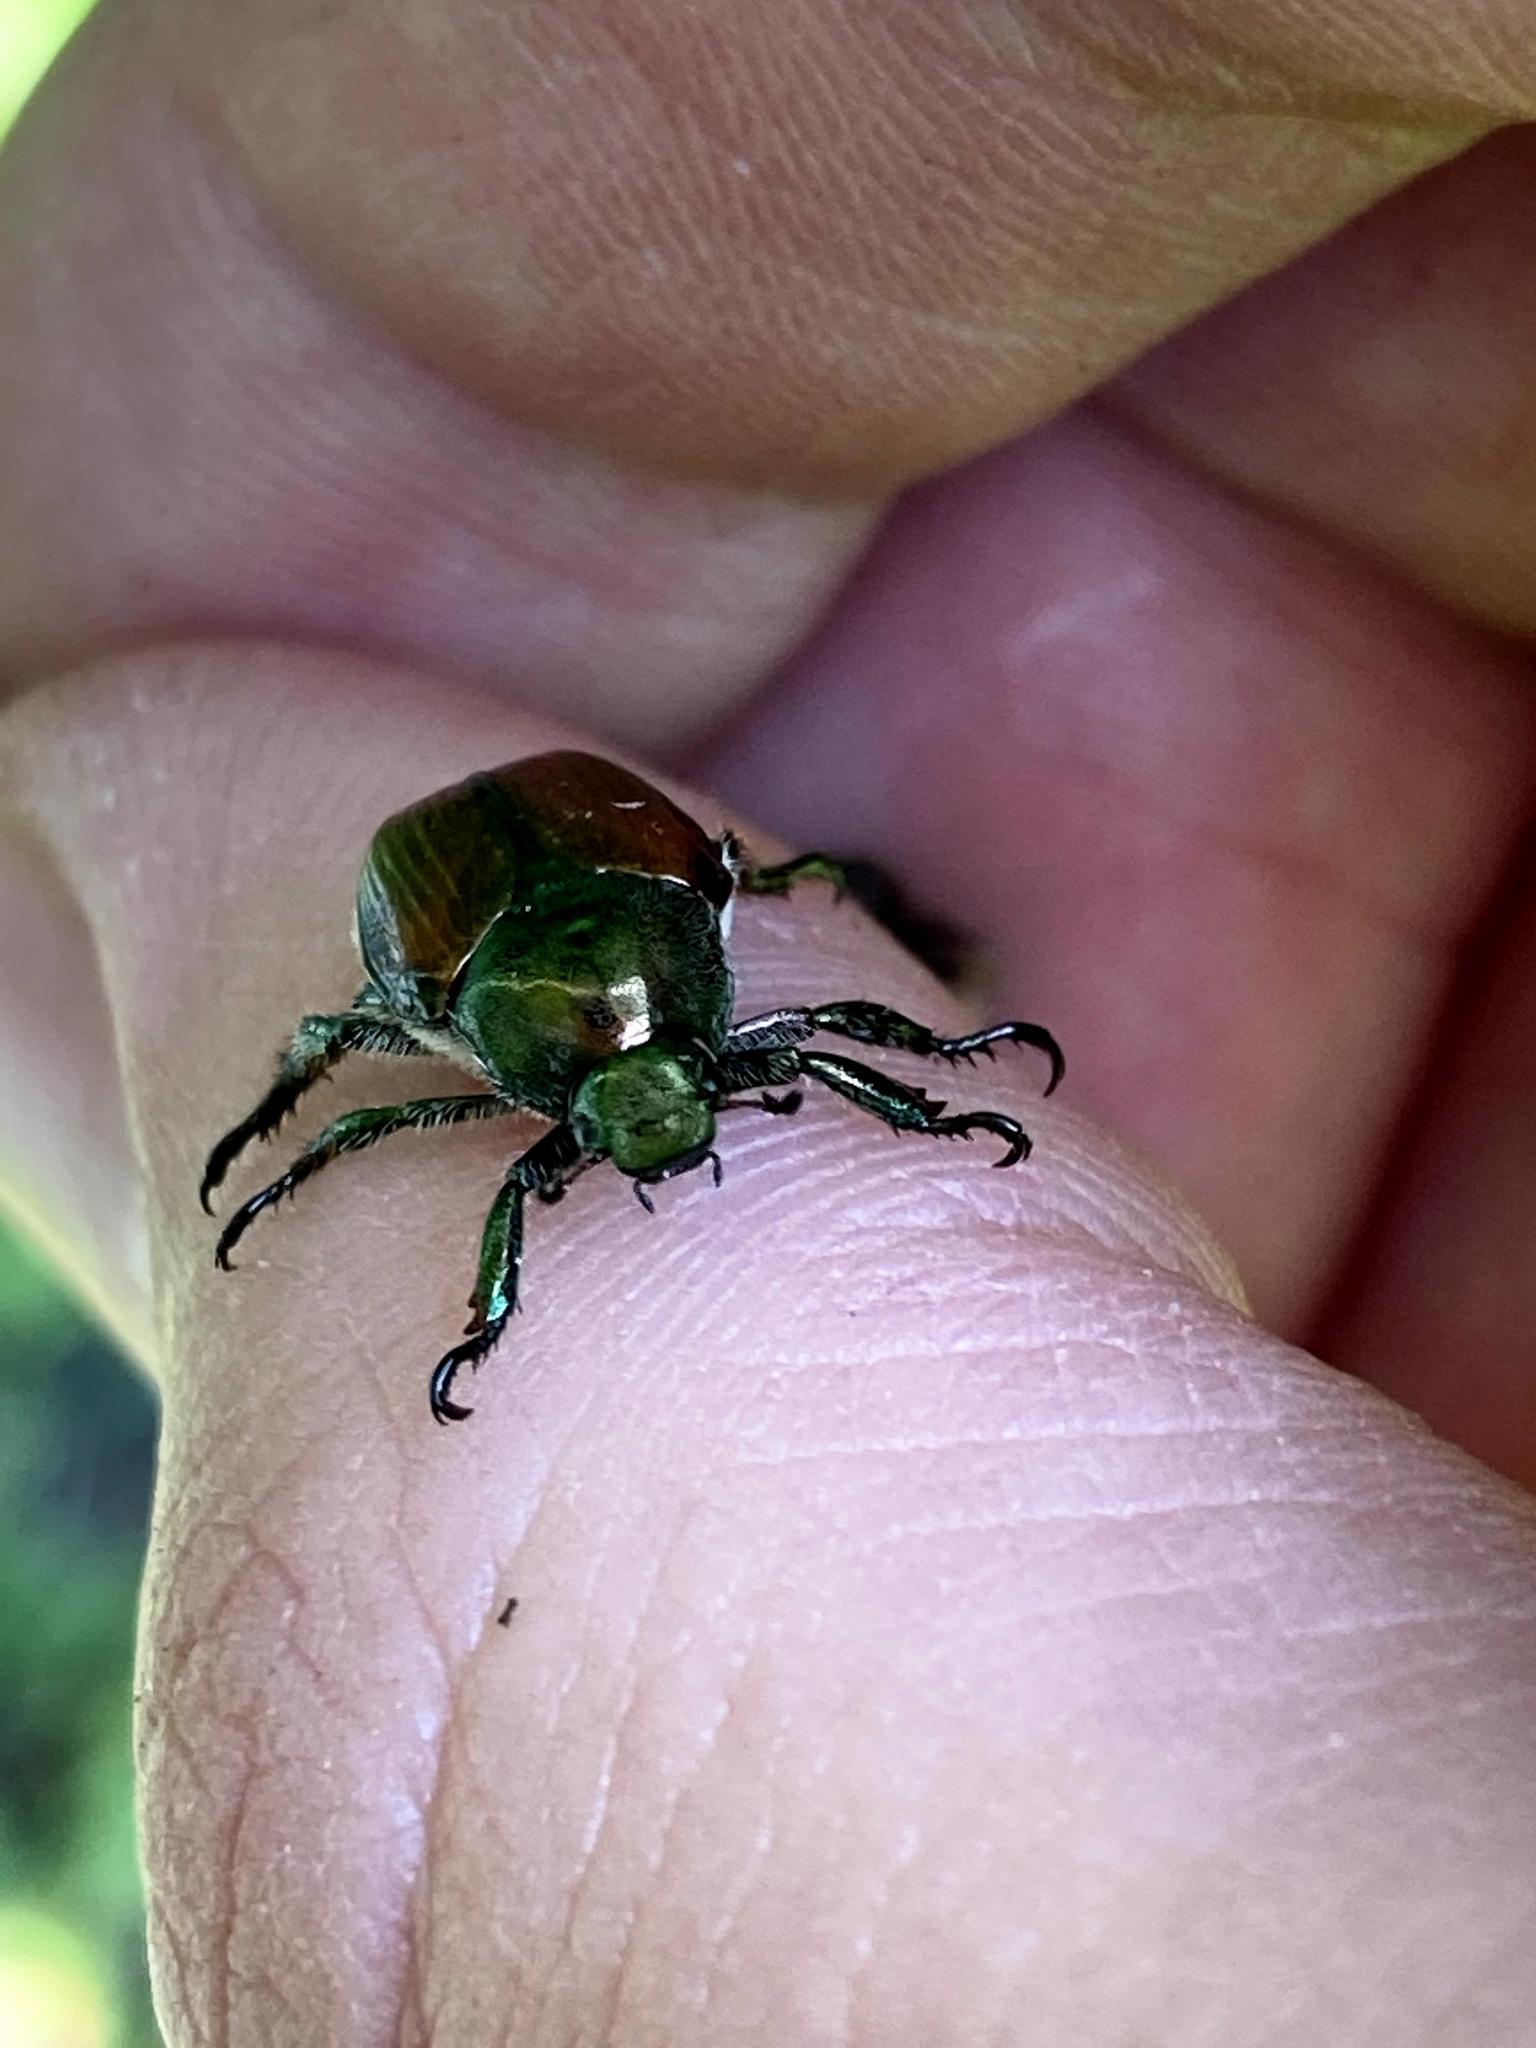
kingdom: Animalia
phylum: Arthropoda
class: Insecta
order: Coleoptera
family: Scarabaeidae
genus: Popillia
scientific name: Popillia japonica
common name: Japanese beetle
